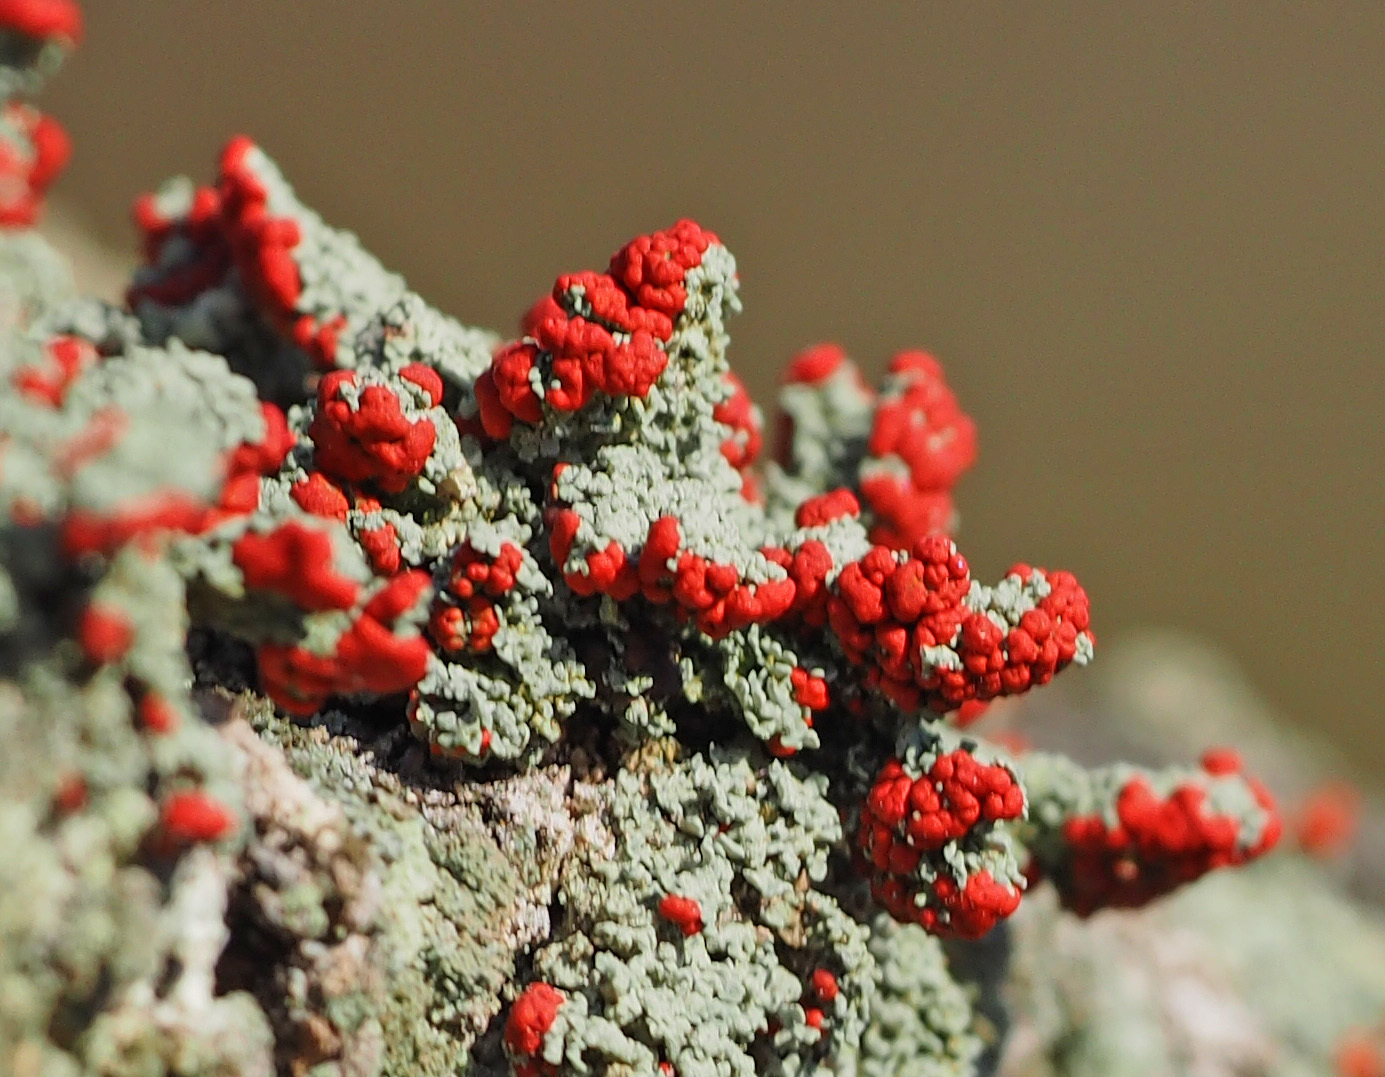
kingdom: Fungi
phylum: Ascomycota
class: Lecanoromycetes
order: Lecanorales
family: Cladoniaceae
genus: Cladonia
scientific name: Cladonia cristatella
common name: British soldier lichen
